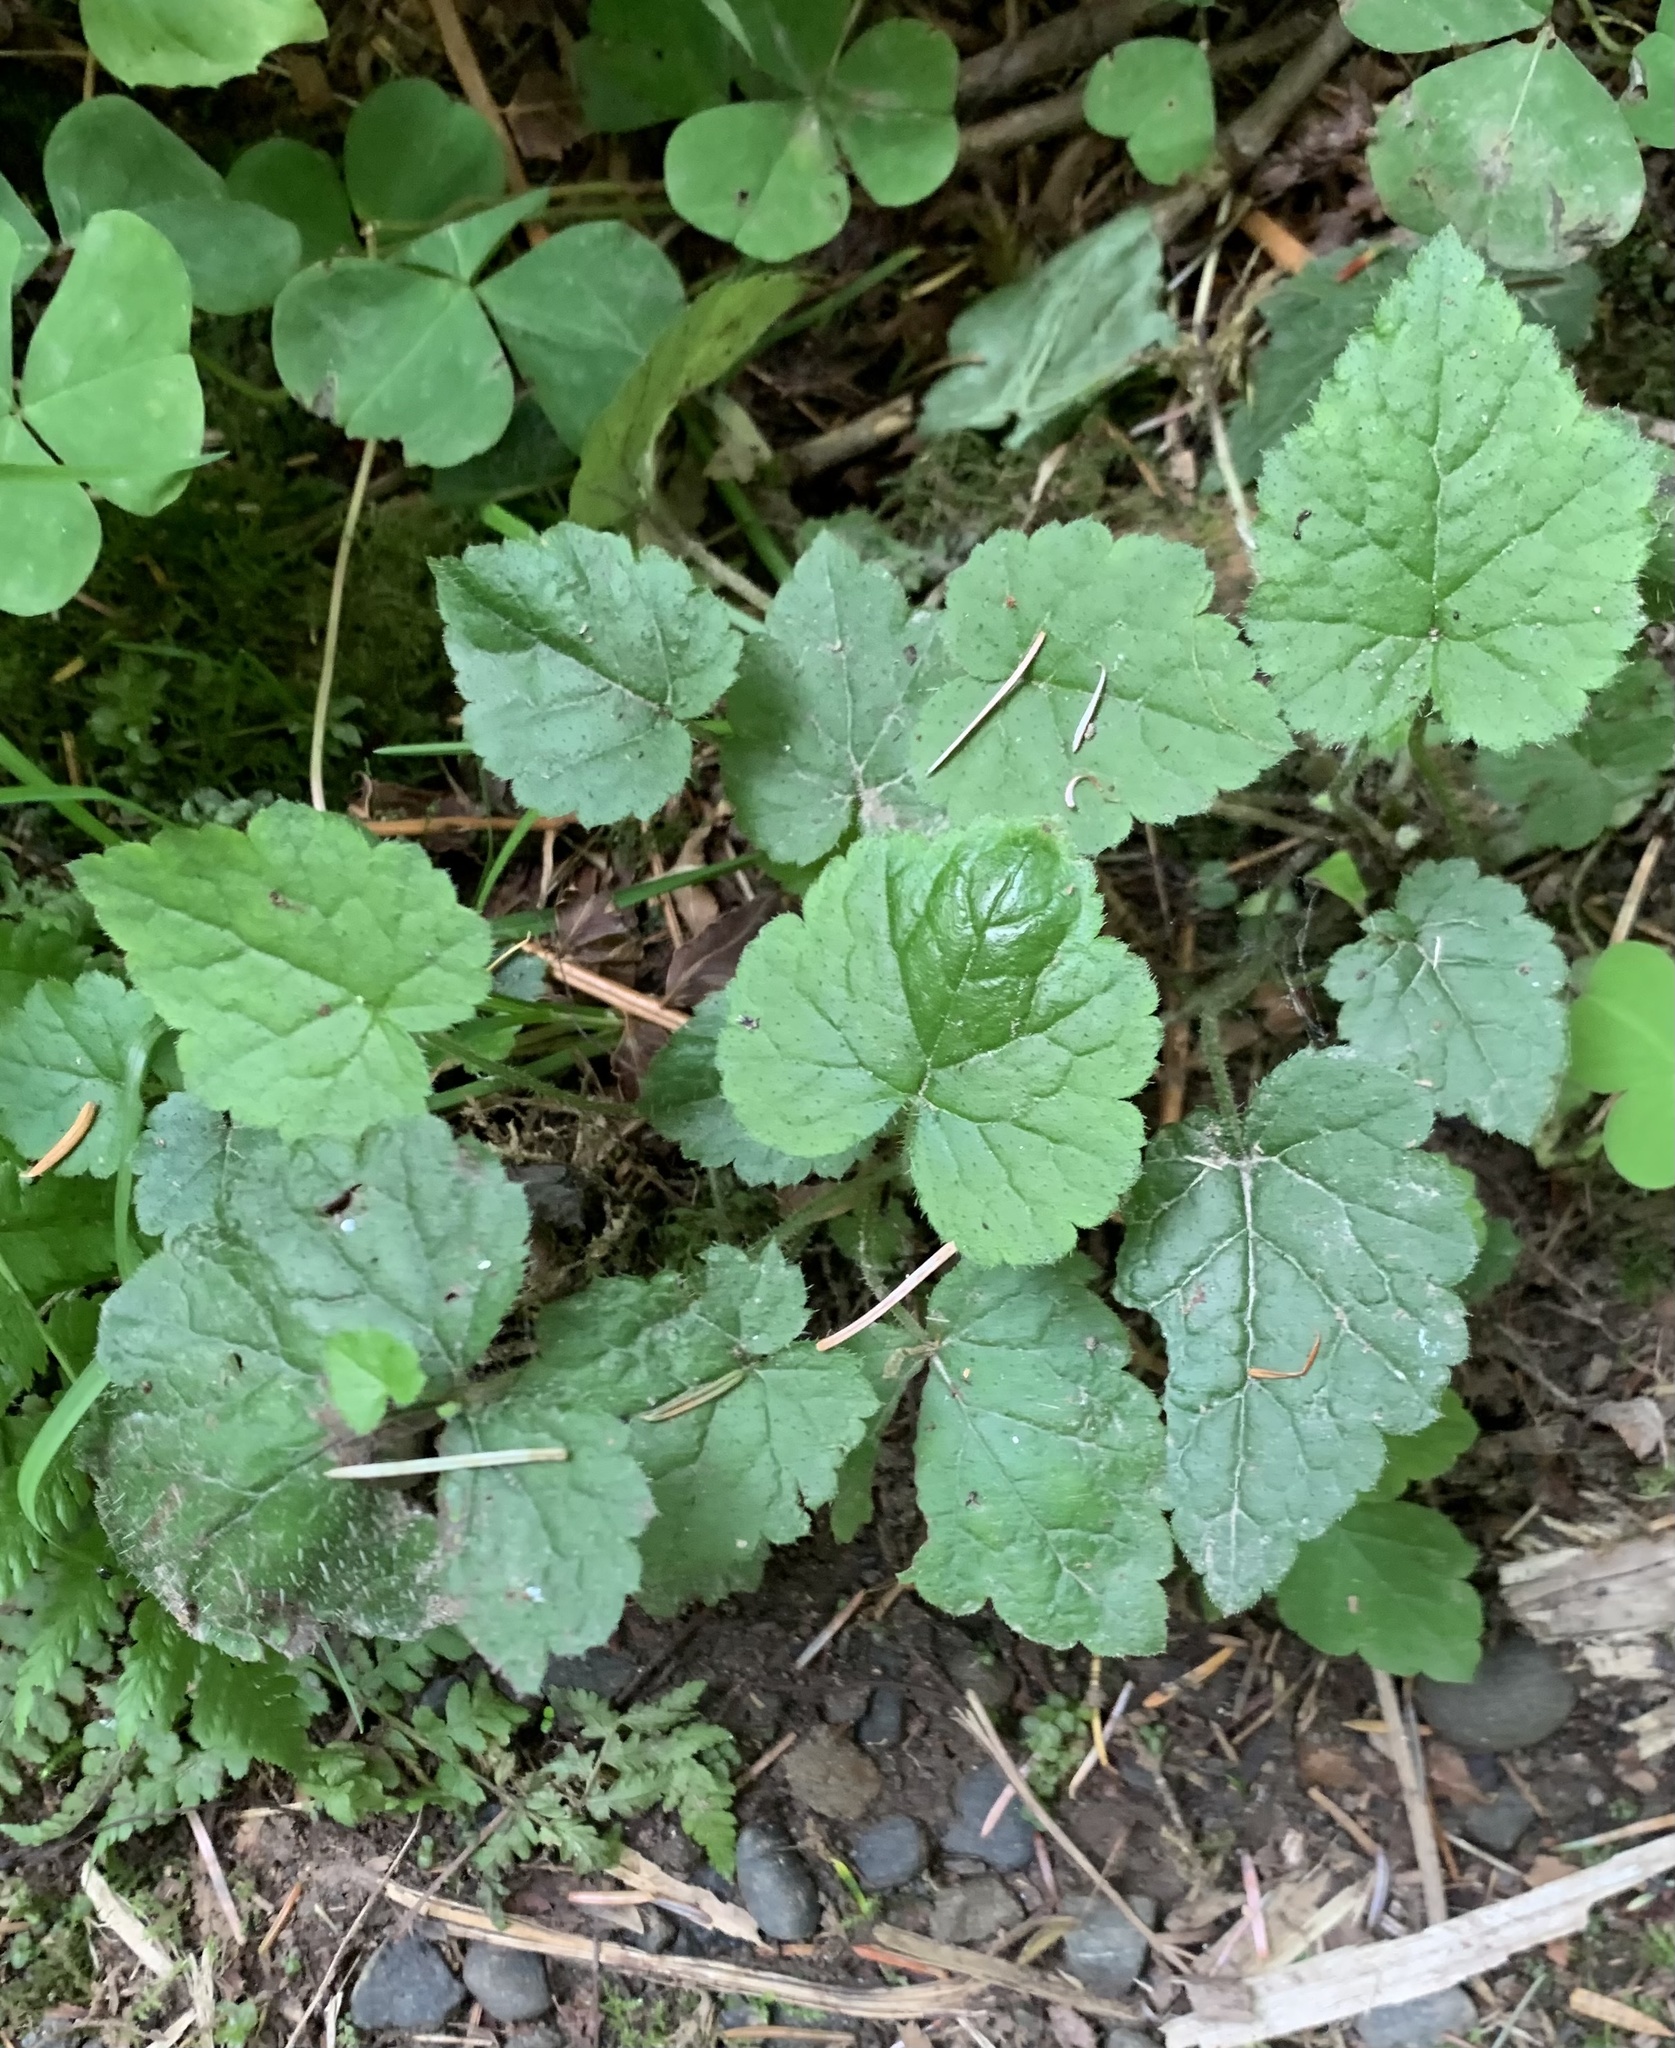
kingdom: Plantae
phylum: Tracheophyta
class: Magnoliopsida
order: Saxifragales
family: Saxifragaceae
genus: Tolmiea
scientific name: Tolmiea menziesii
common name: Pick-a-back-plant
